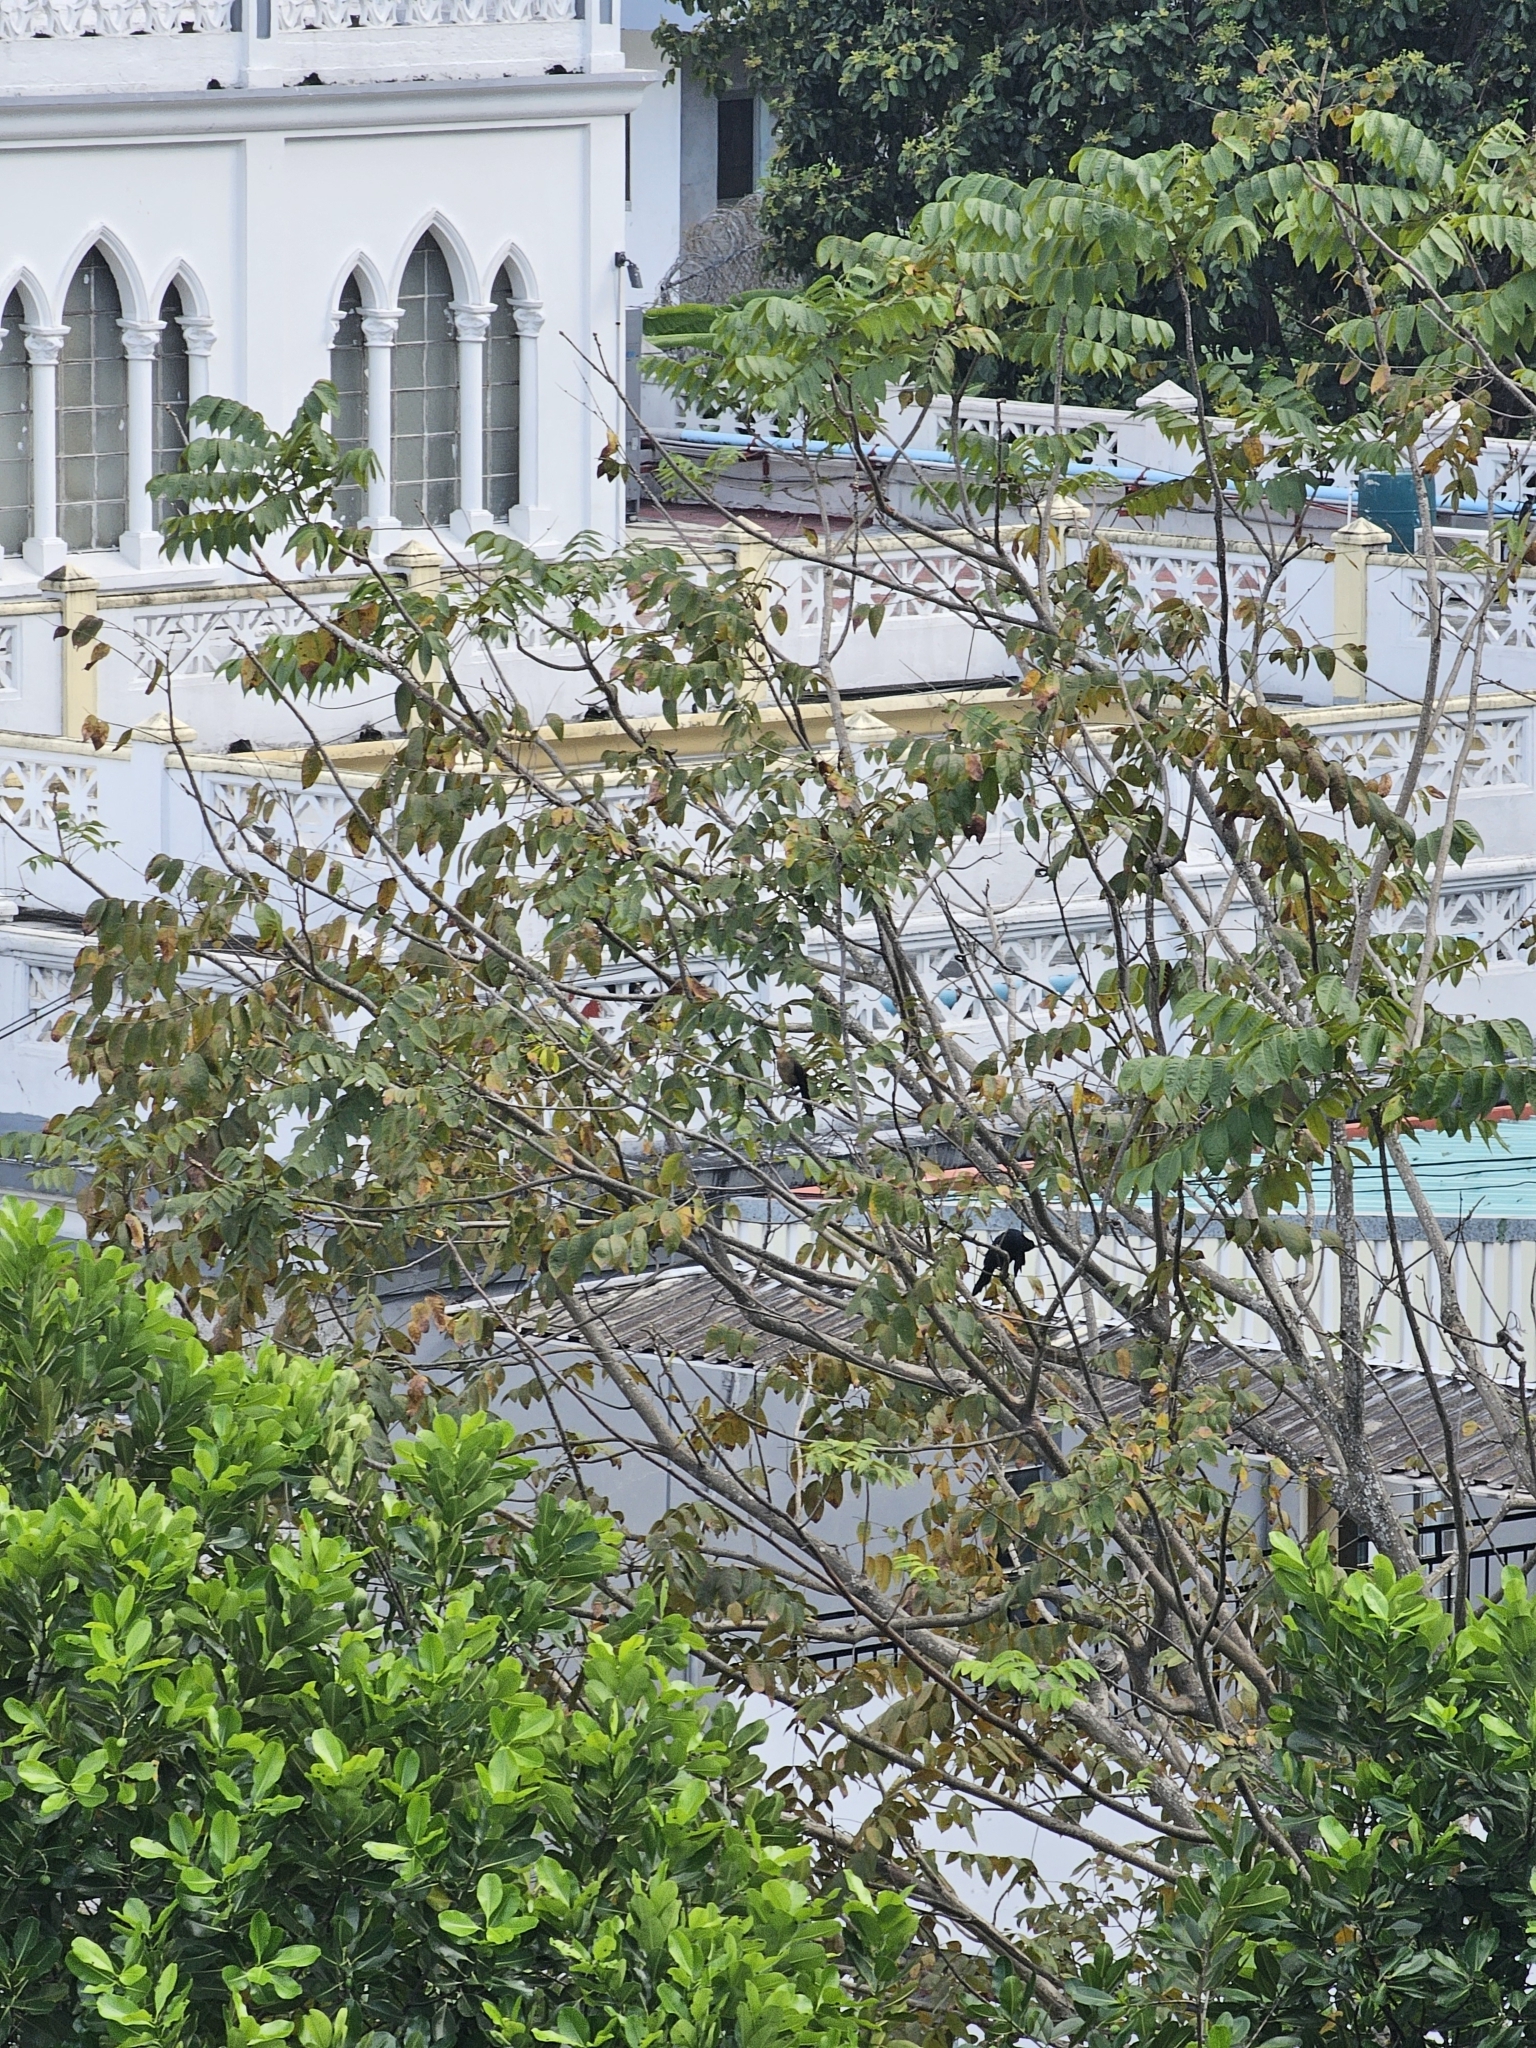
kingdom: Animalia
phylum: Chordata
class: Aves
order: Passeriformes
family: Icteridae
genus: Quiscalus
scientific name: Quiscalus mexicanus
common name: Great-tailed grackle
